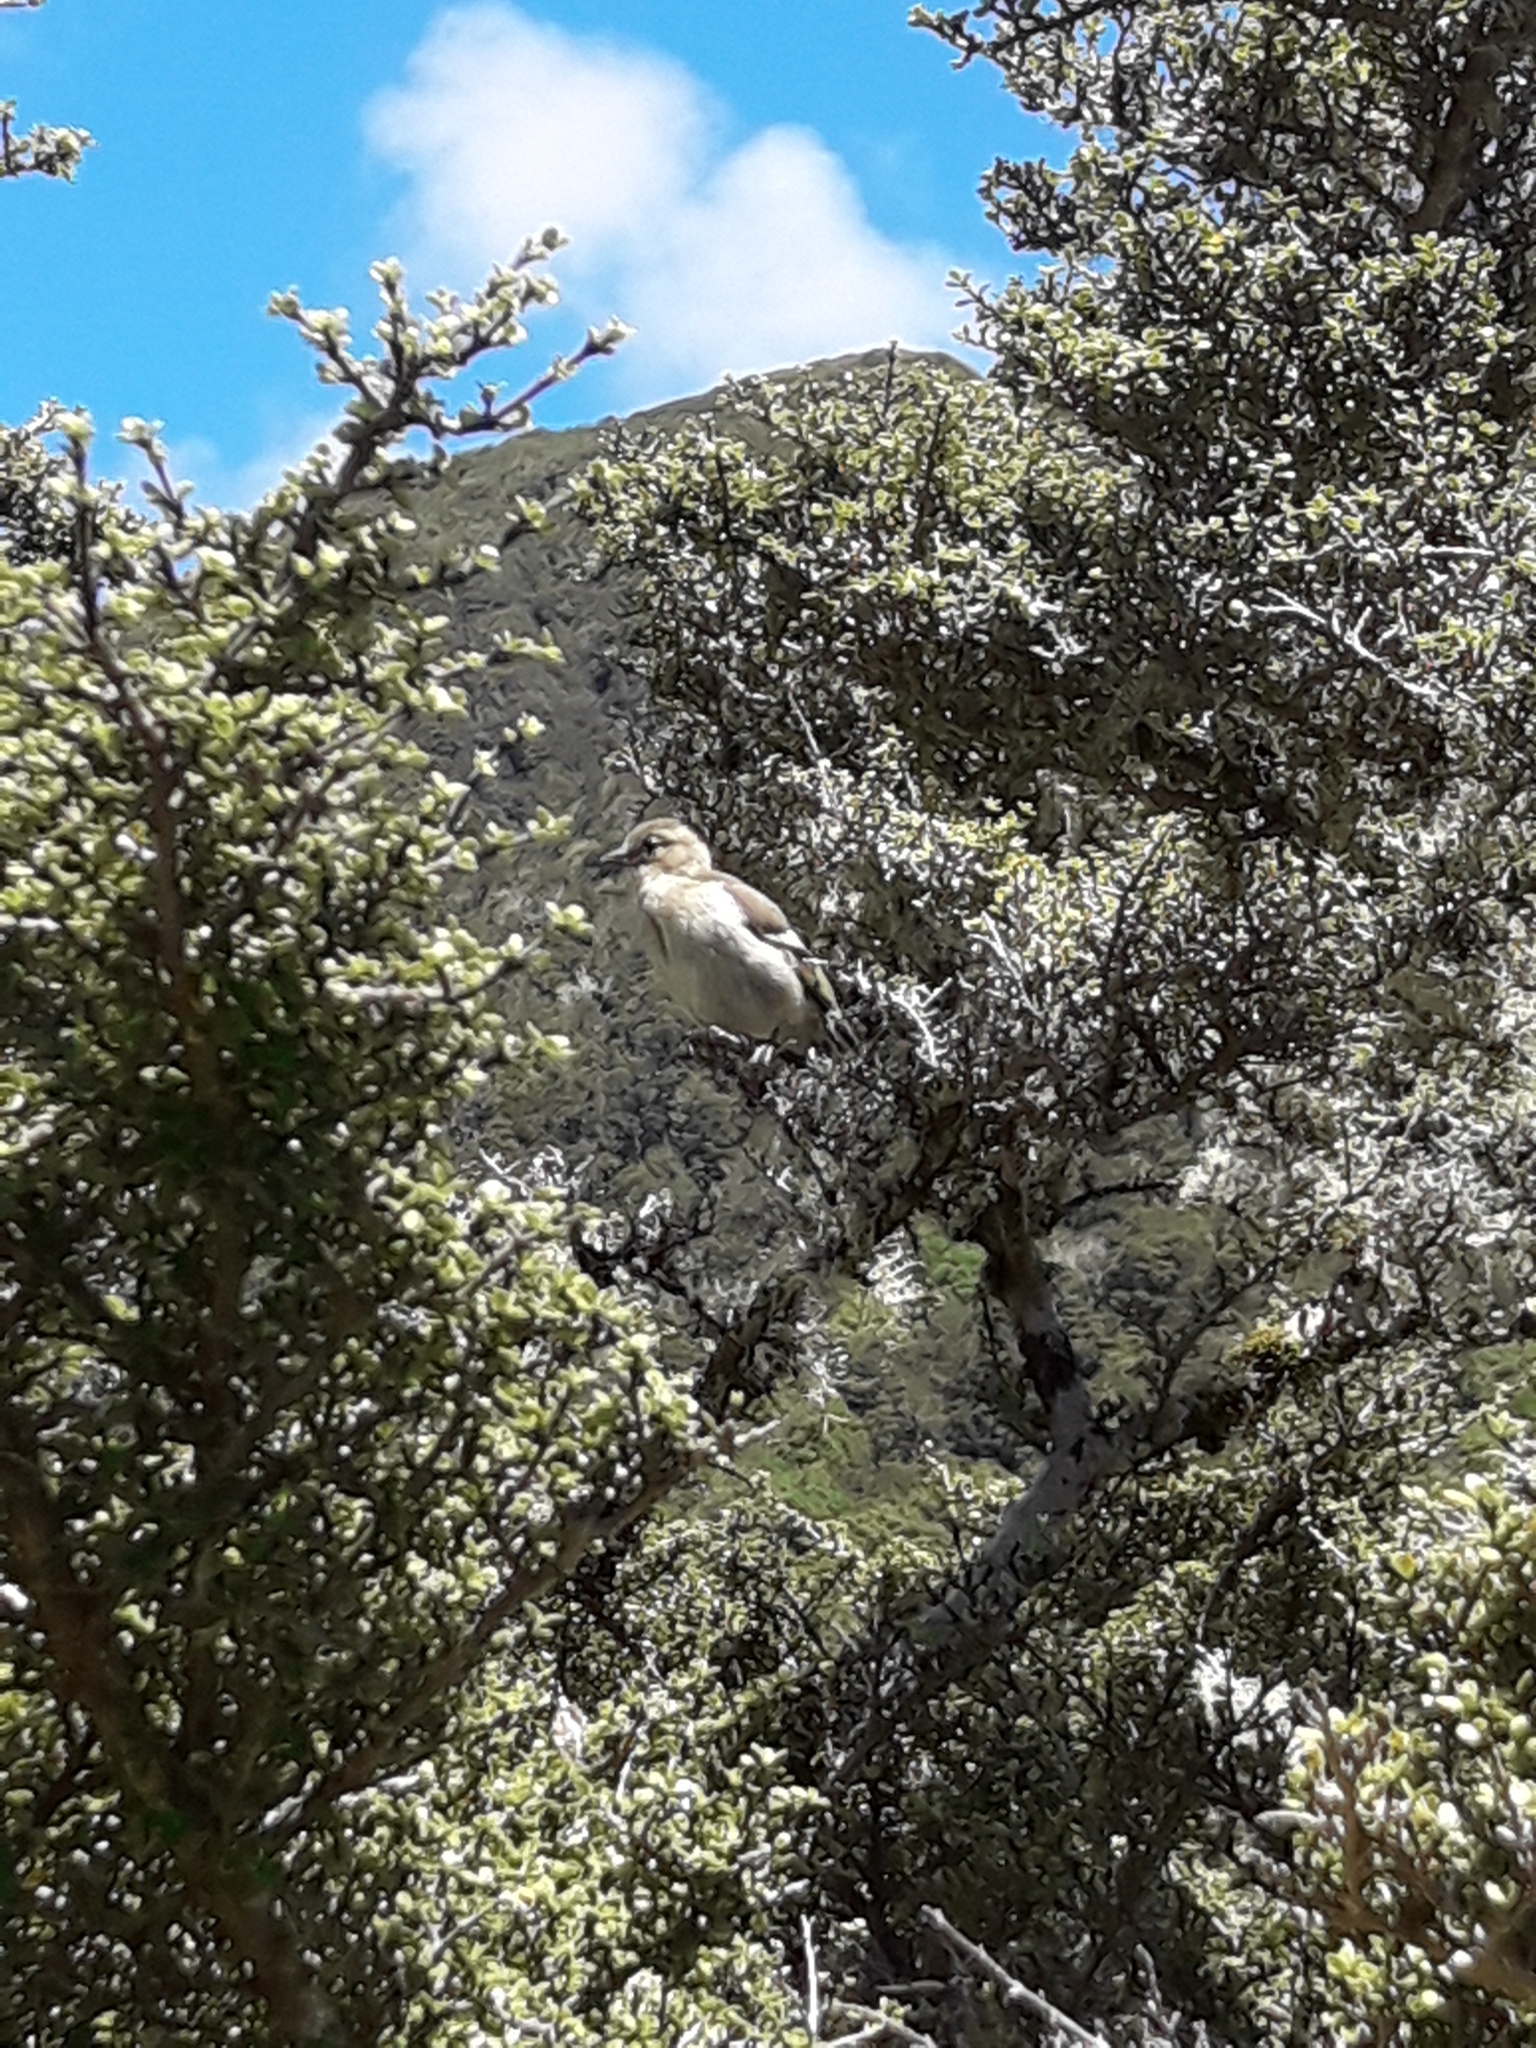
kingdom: Animalia
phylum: Chordata
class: Aves
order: Passeriformes
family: Fringillidae
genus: Fringilla
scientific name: Fringilla coelebs
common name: Common chaffinch
